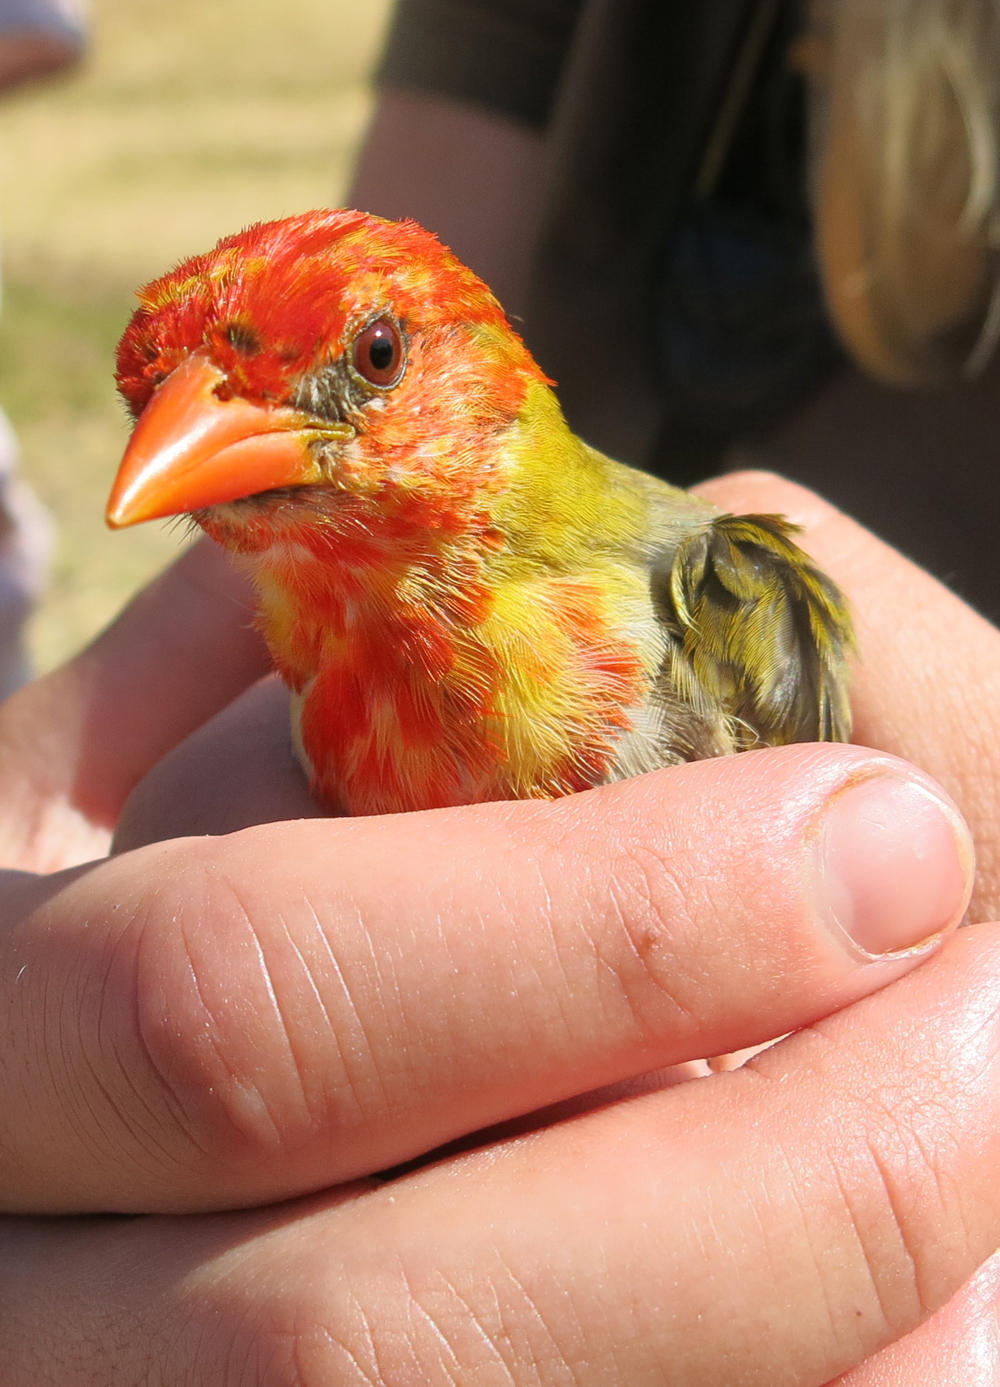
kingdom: Animalia
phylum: Chordata
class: Aves
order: Passeriformes
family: Ploceidae
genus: Anaplectes
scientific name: Anaplectes rubriceps
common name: Red-headed weaver
